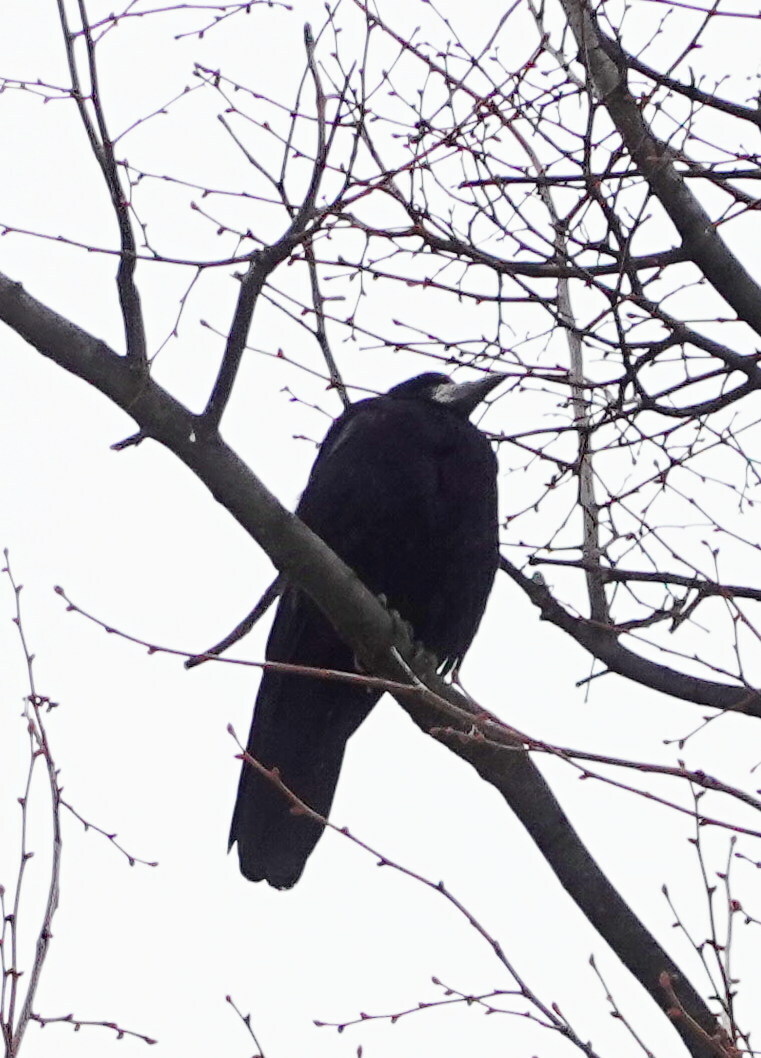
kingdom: Animalia
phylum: Chordata
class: Aves
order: Passeriformes
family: Corvidae
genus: Corvus
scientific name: Corvus frugilegus
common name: Rook
